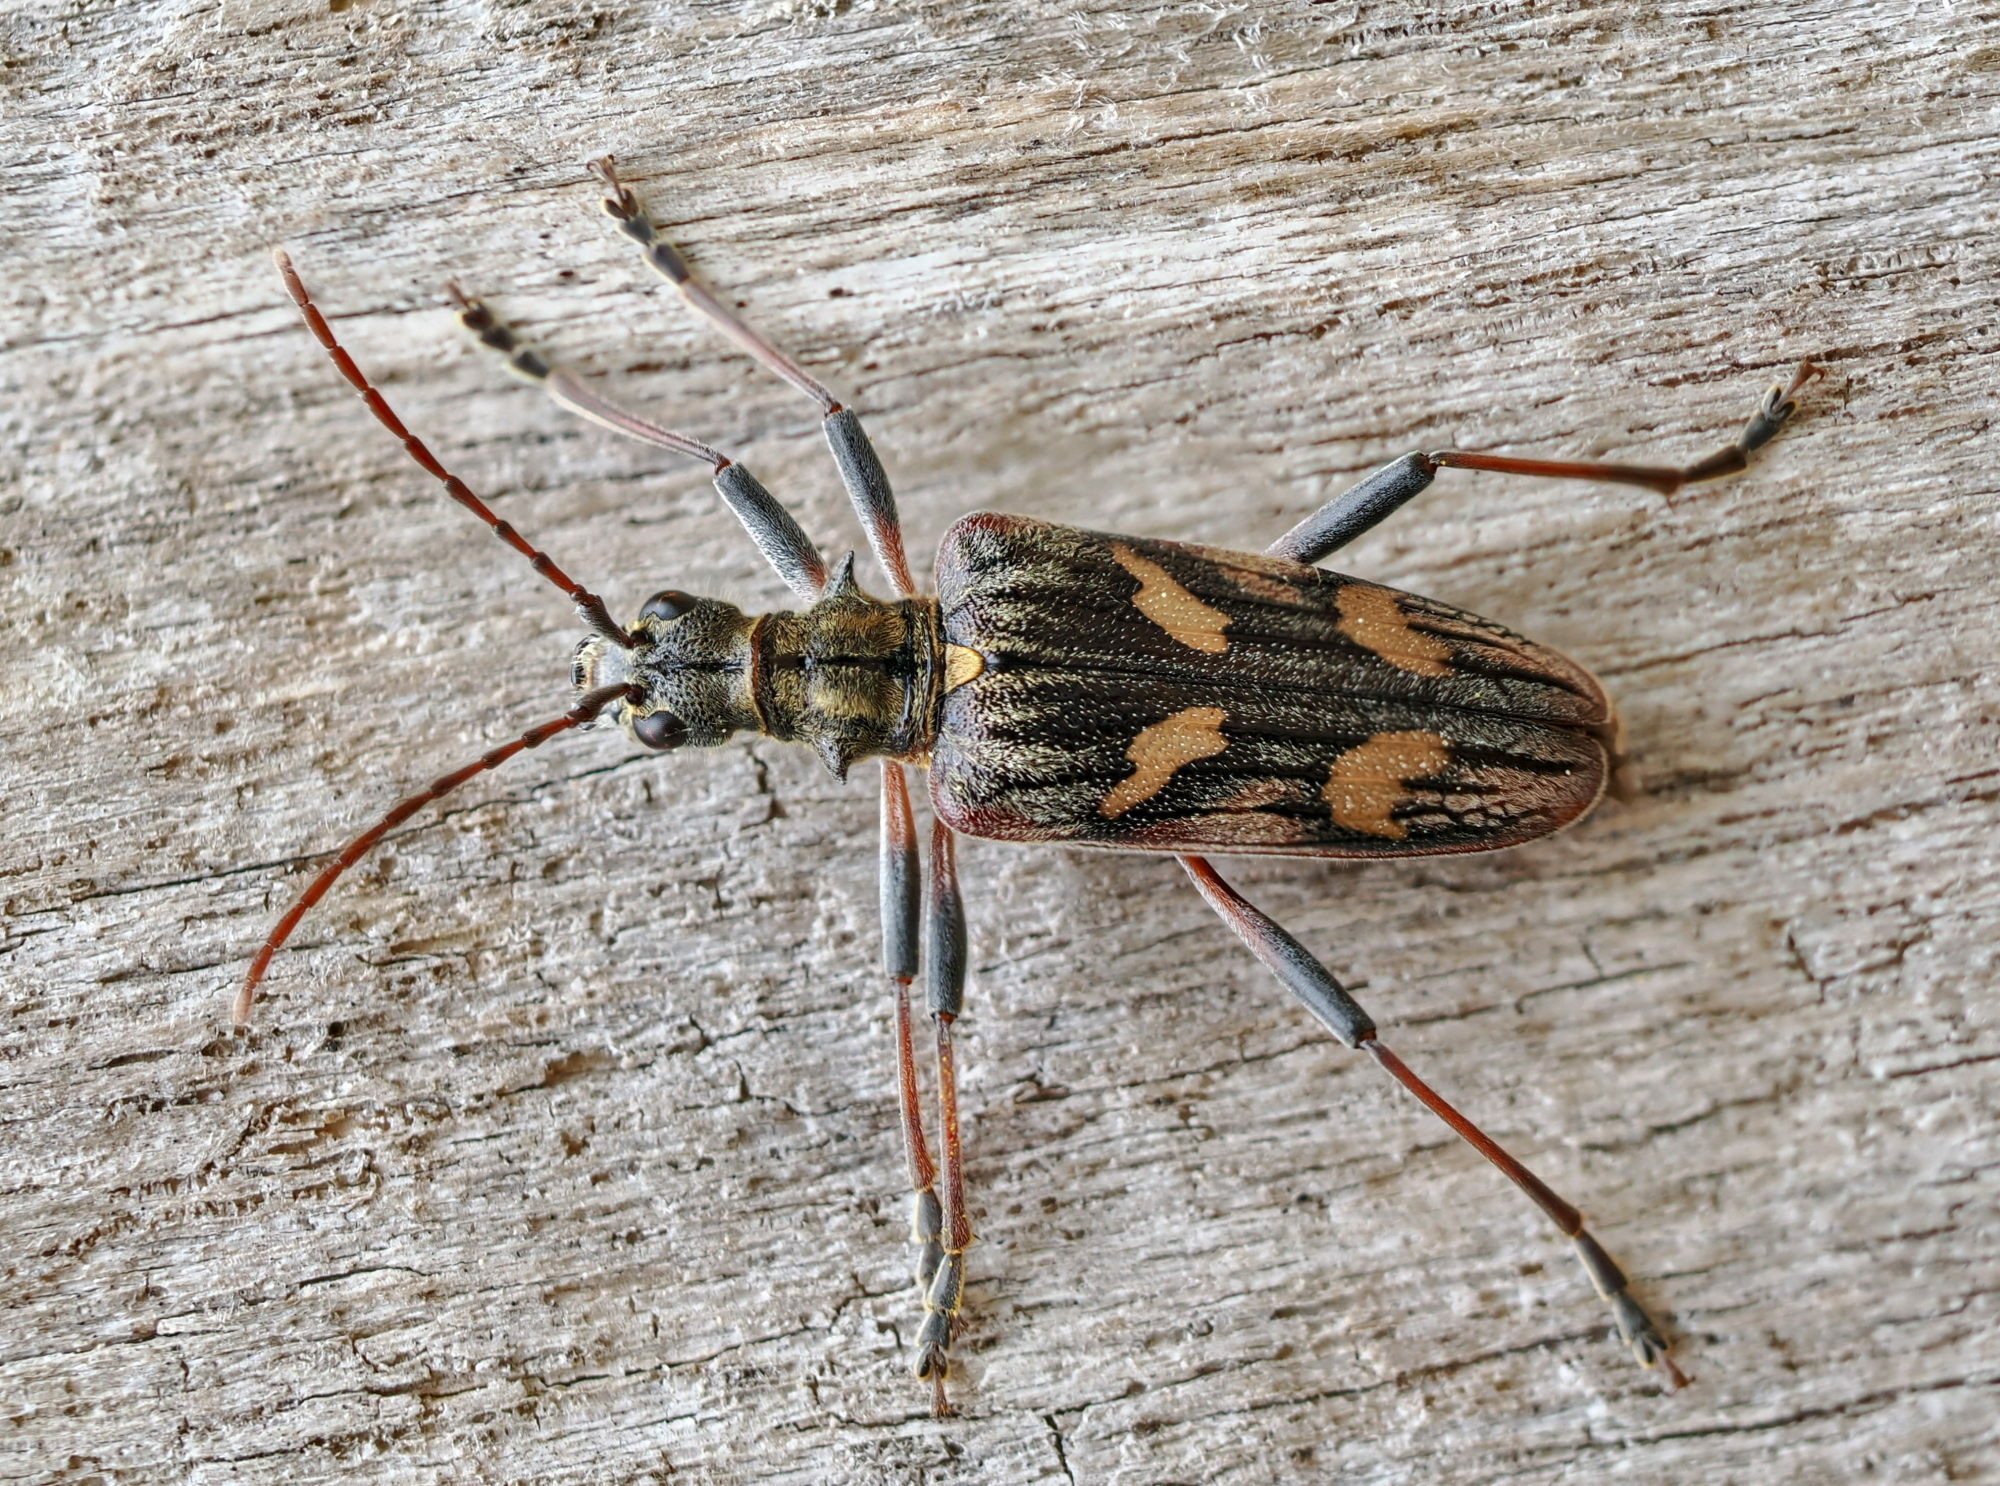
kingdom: Animalia
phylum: Arthropoda
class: Insecta
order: Coleoptera
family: Cerambycidae
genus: Rhagium
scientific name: Rhagium bifasciatum
